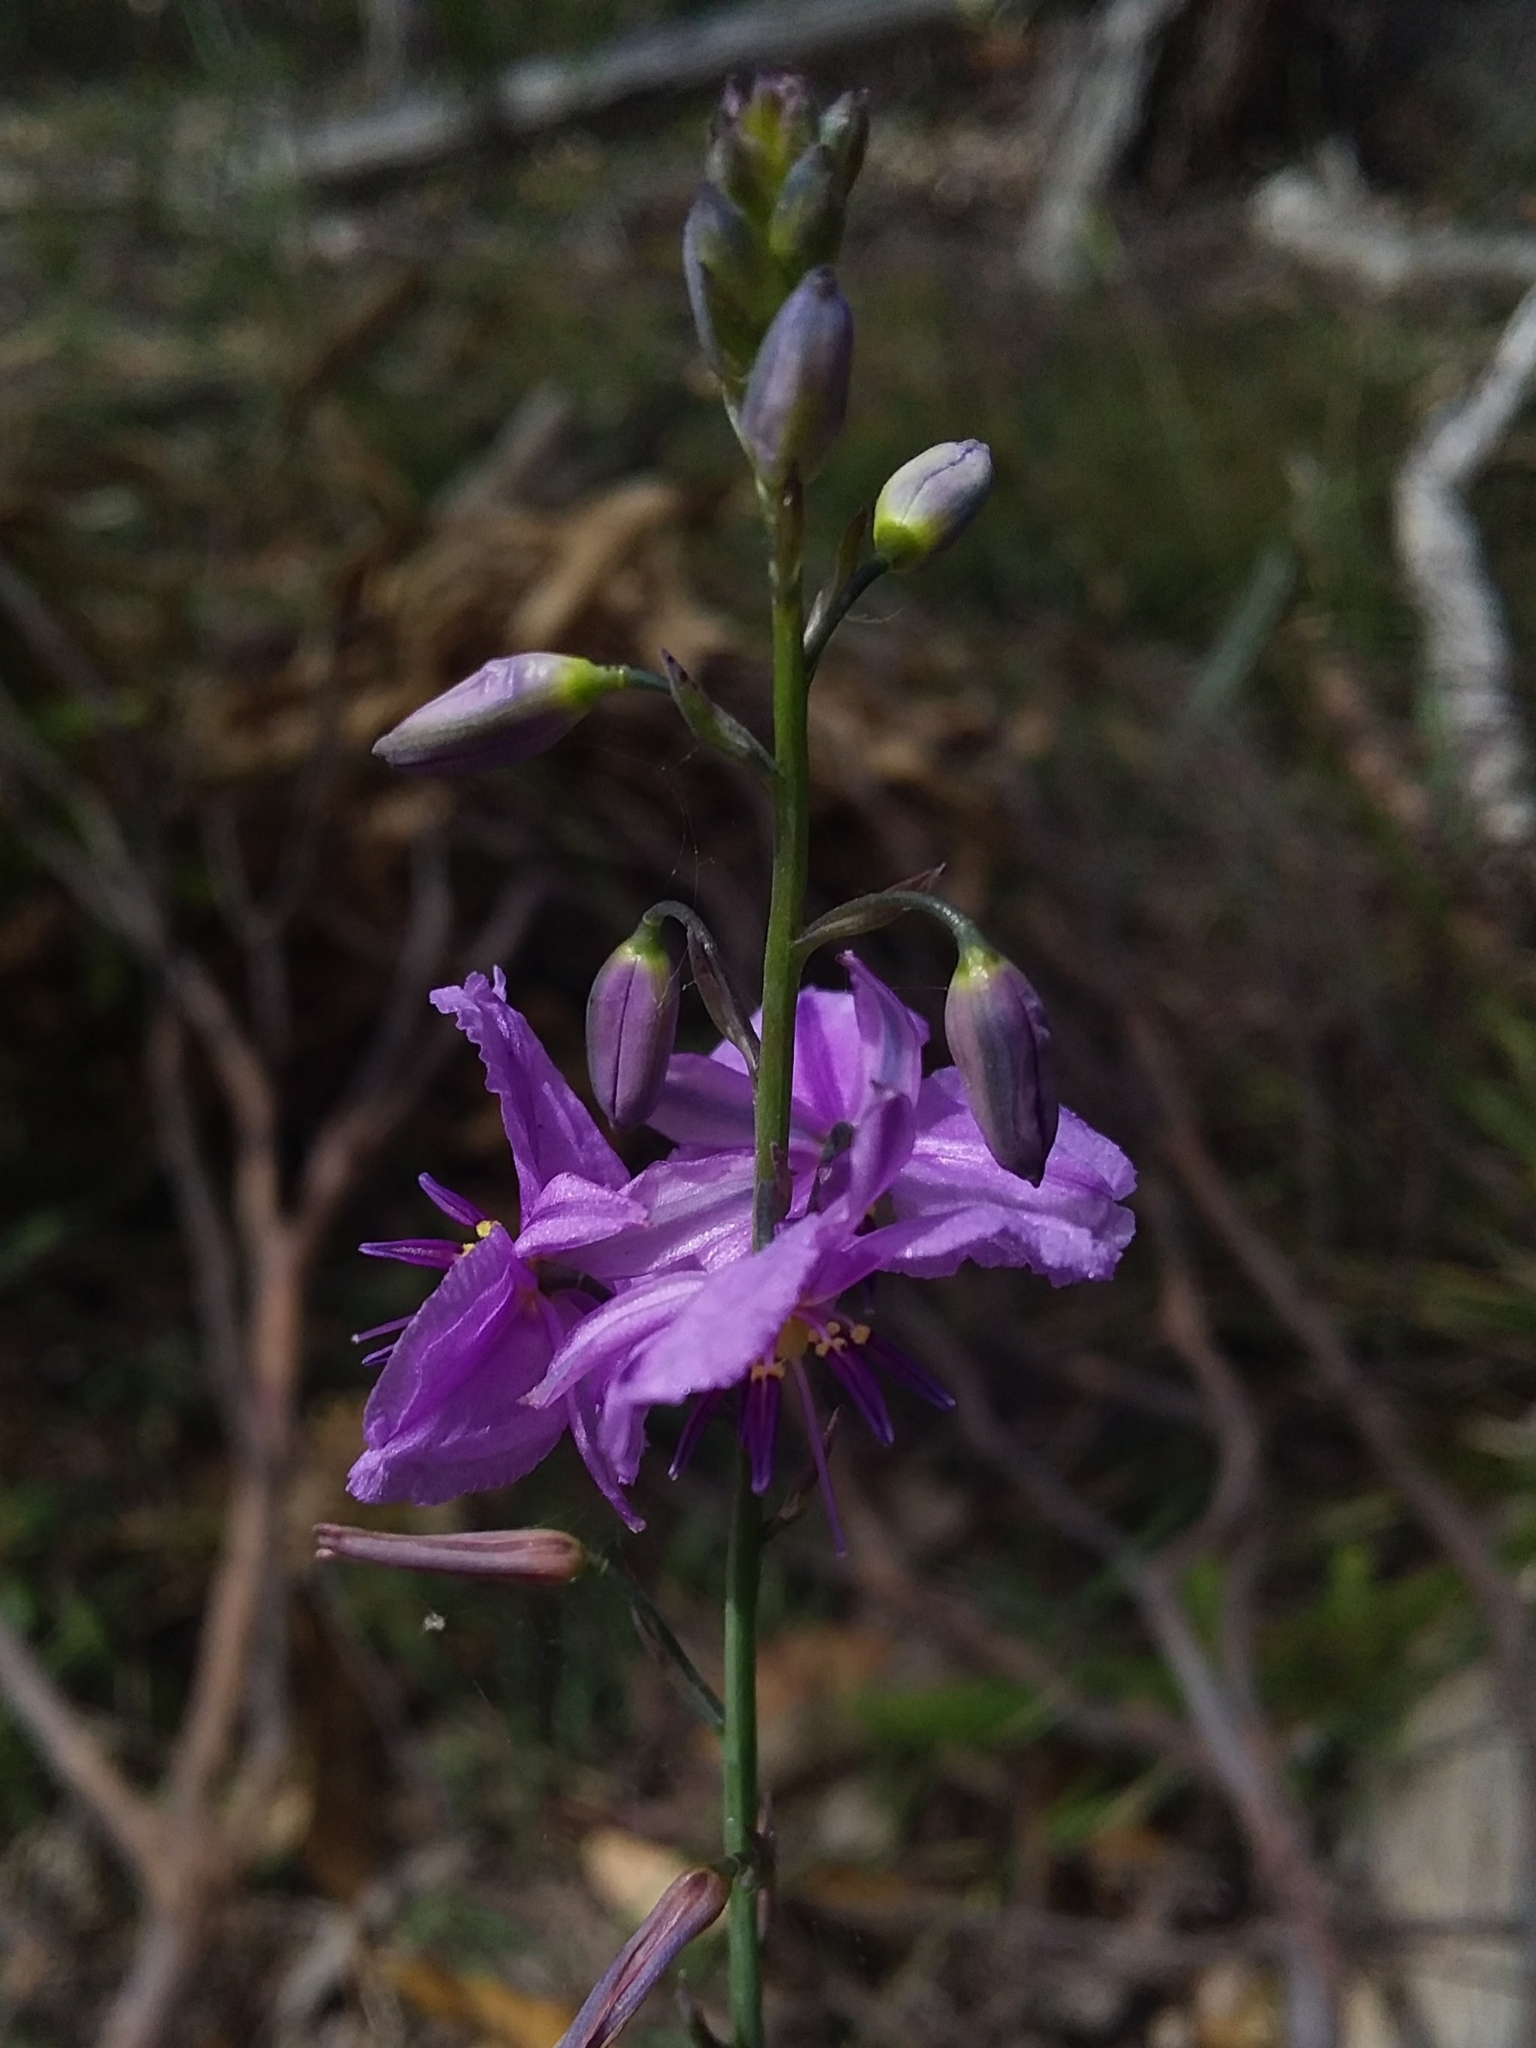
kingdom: Plantae
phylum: Tracheophyta
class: Liliopsida
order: Asparagales
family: Asparagaceae
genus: Arthropodium
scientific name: Arthropodium strictum
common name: Chocolate-lily
